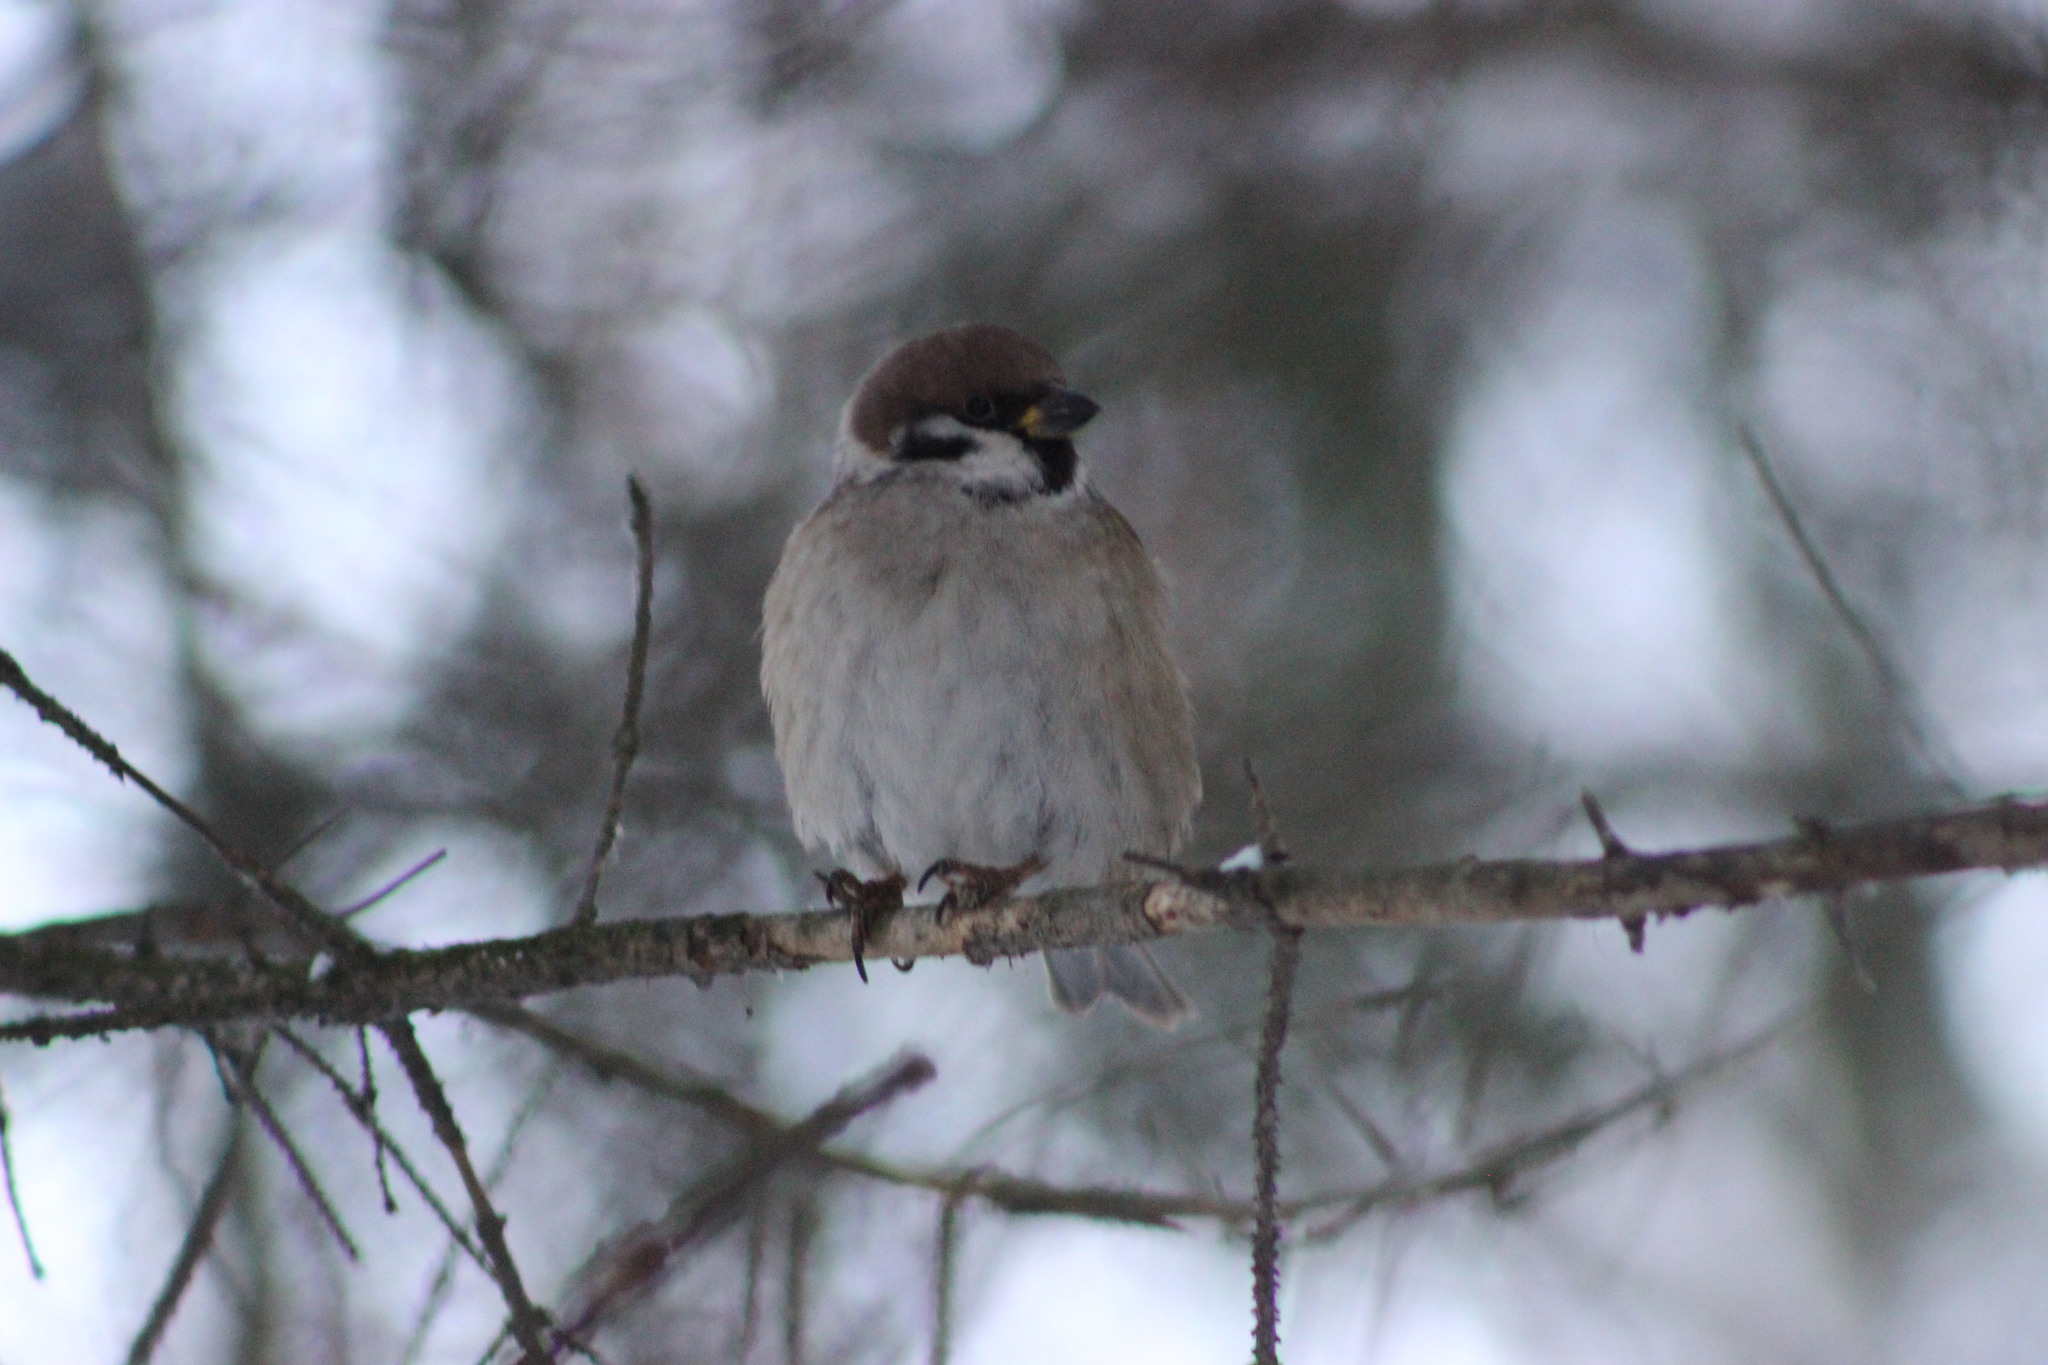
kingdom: Animalia
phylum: Chordata
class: Aves
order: Passeriformes
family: Passeridae
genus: Passer
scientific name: Passer montanus
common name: Eurasian tree sparrow
